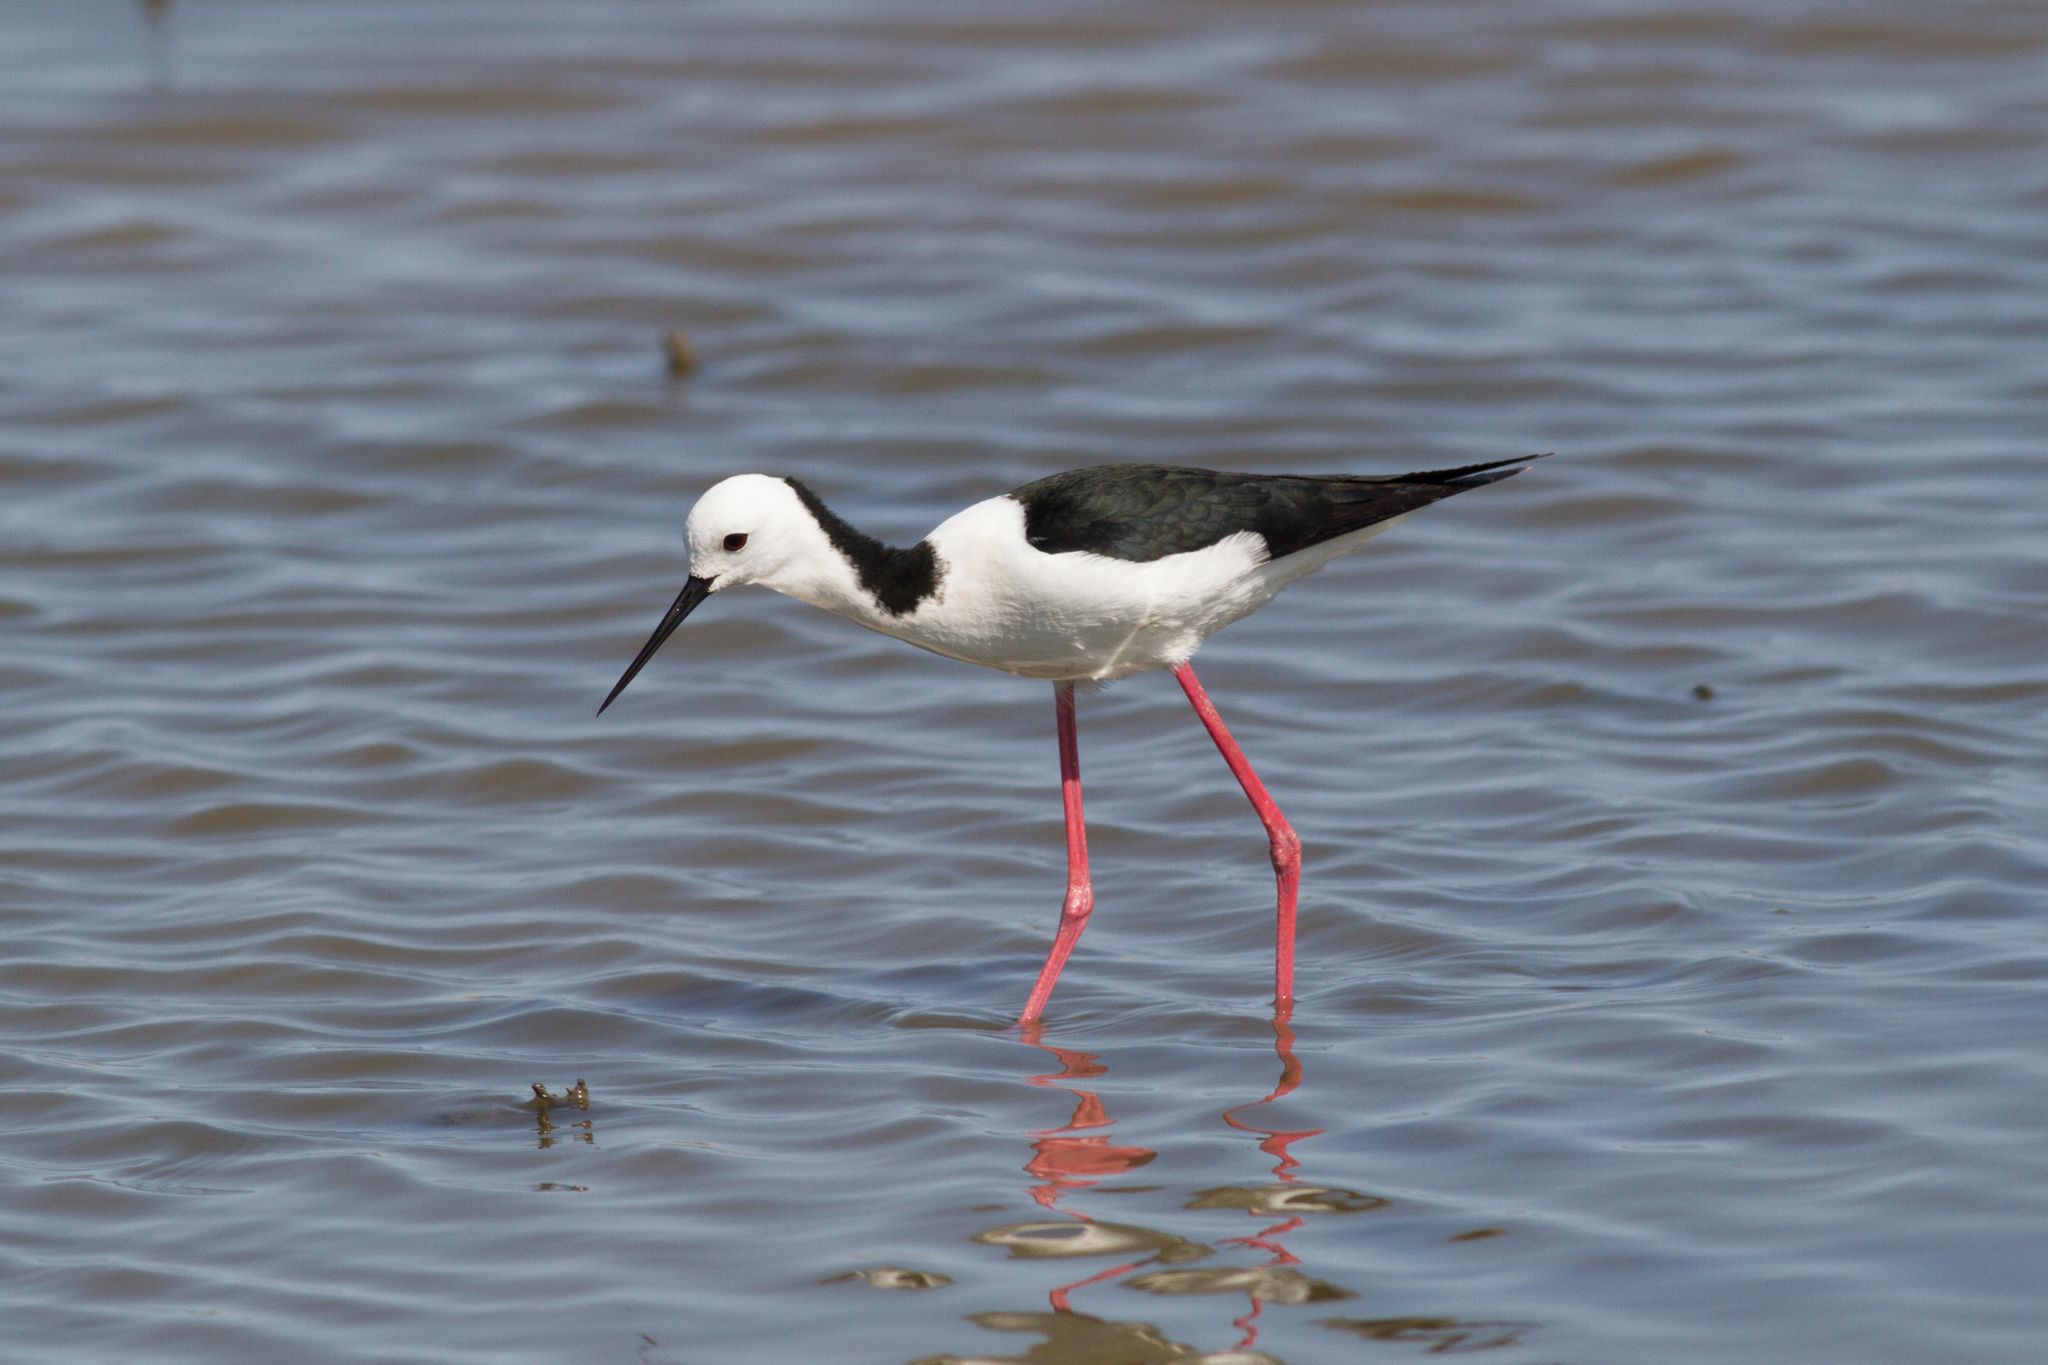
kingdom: Animalia
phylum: Chordata
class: Aves
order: Charadriiformes
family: Recurvirostridae
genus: Himantopus
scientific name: Himantopus leucocephalus
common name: White-headed stilt
